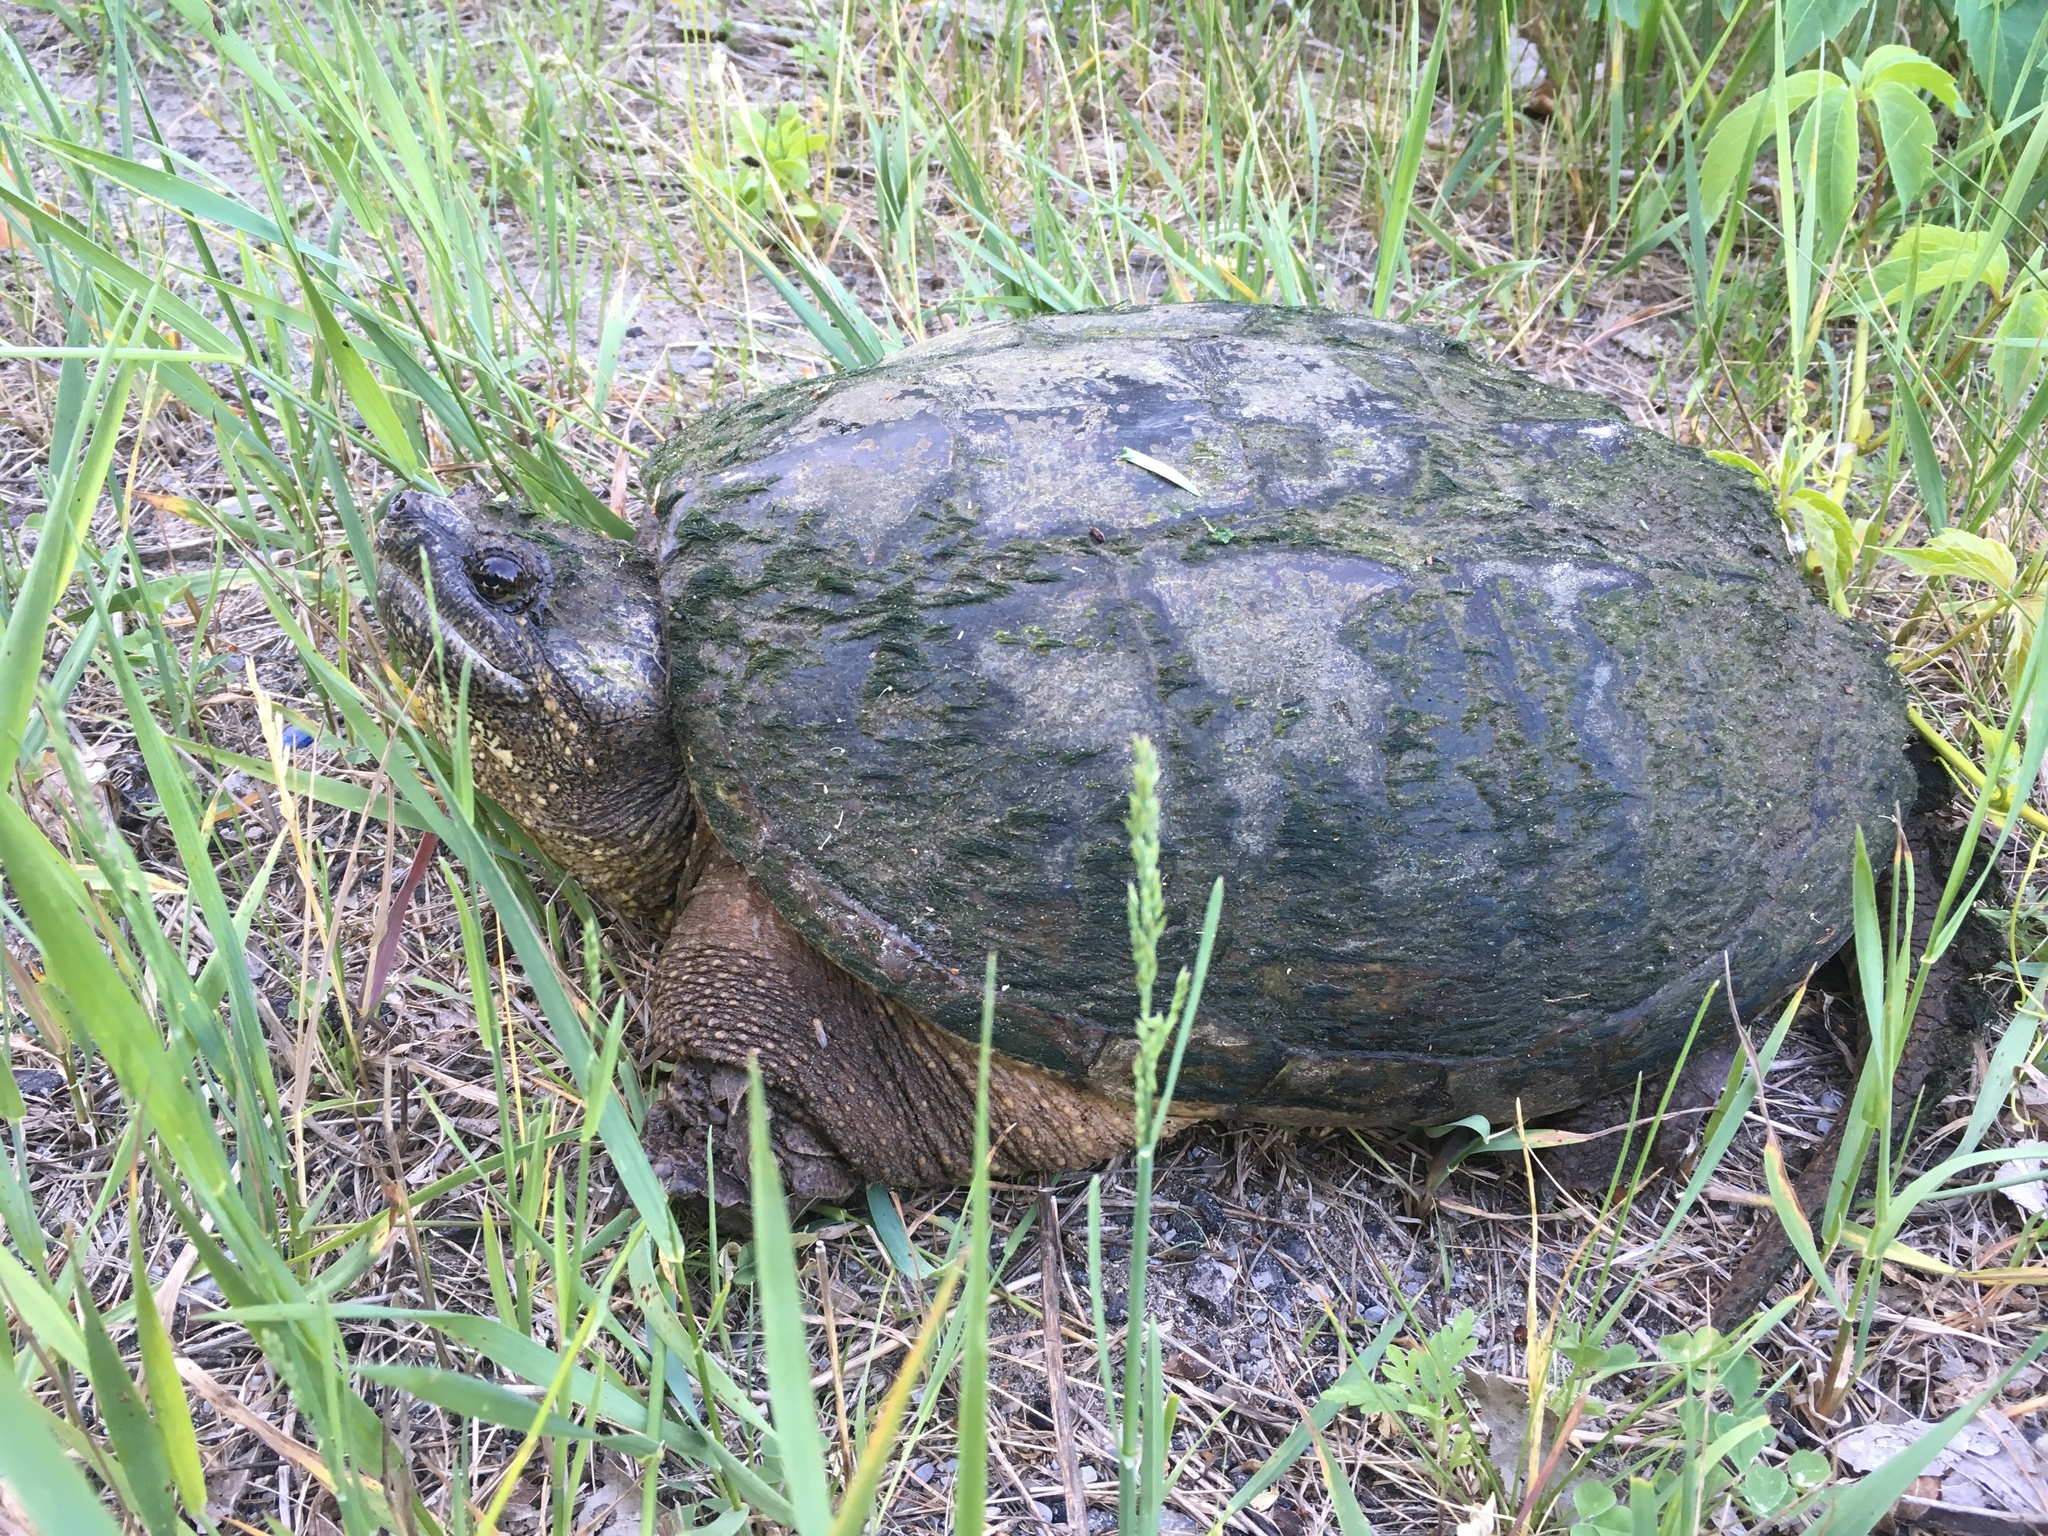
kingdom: Animalia
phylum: Chordata
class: Testudines
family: Chelydridae
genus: Chelydra
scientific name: Chelydra serpentina
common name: Common snapping turtle
